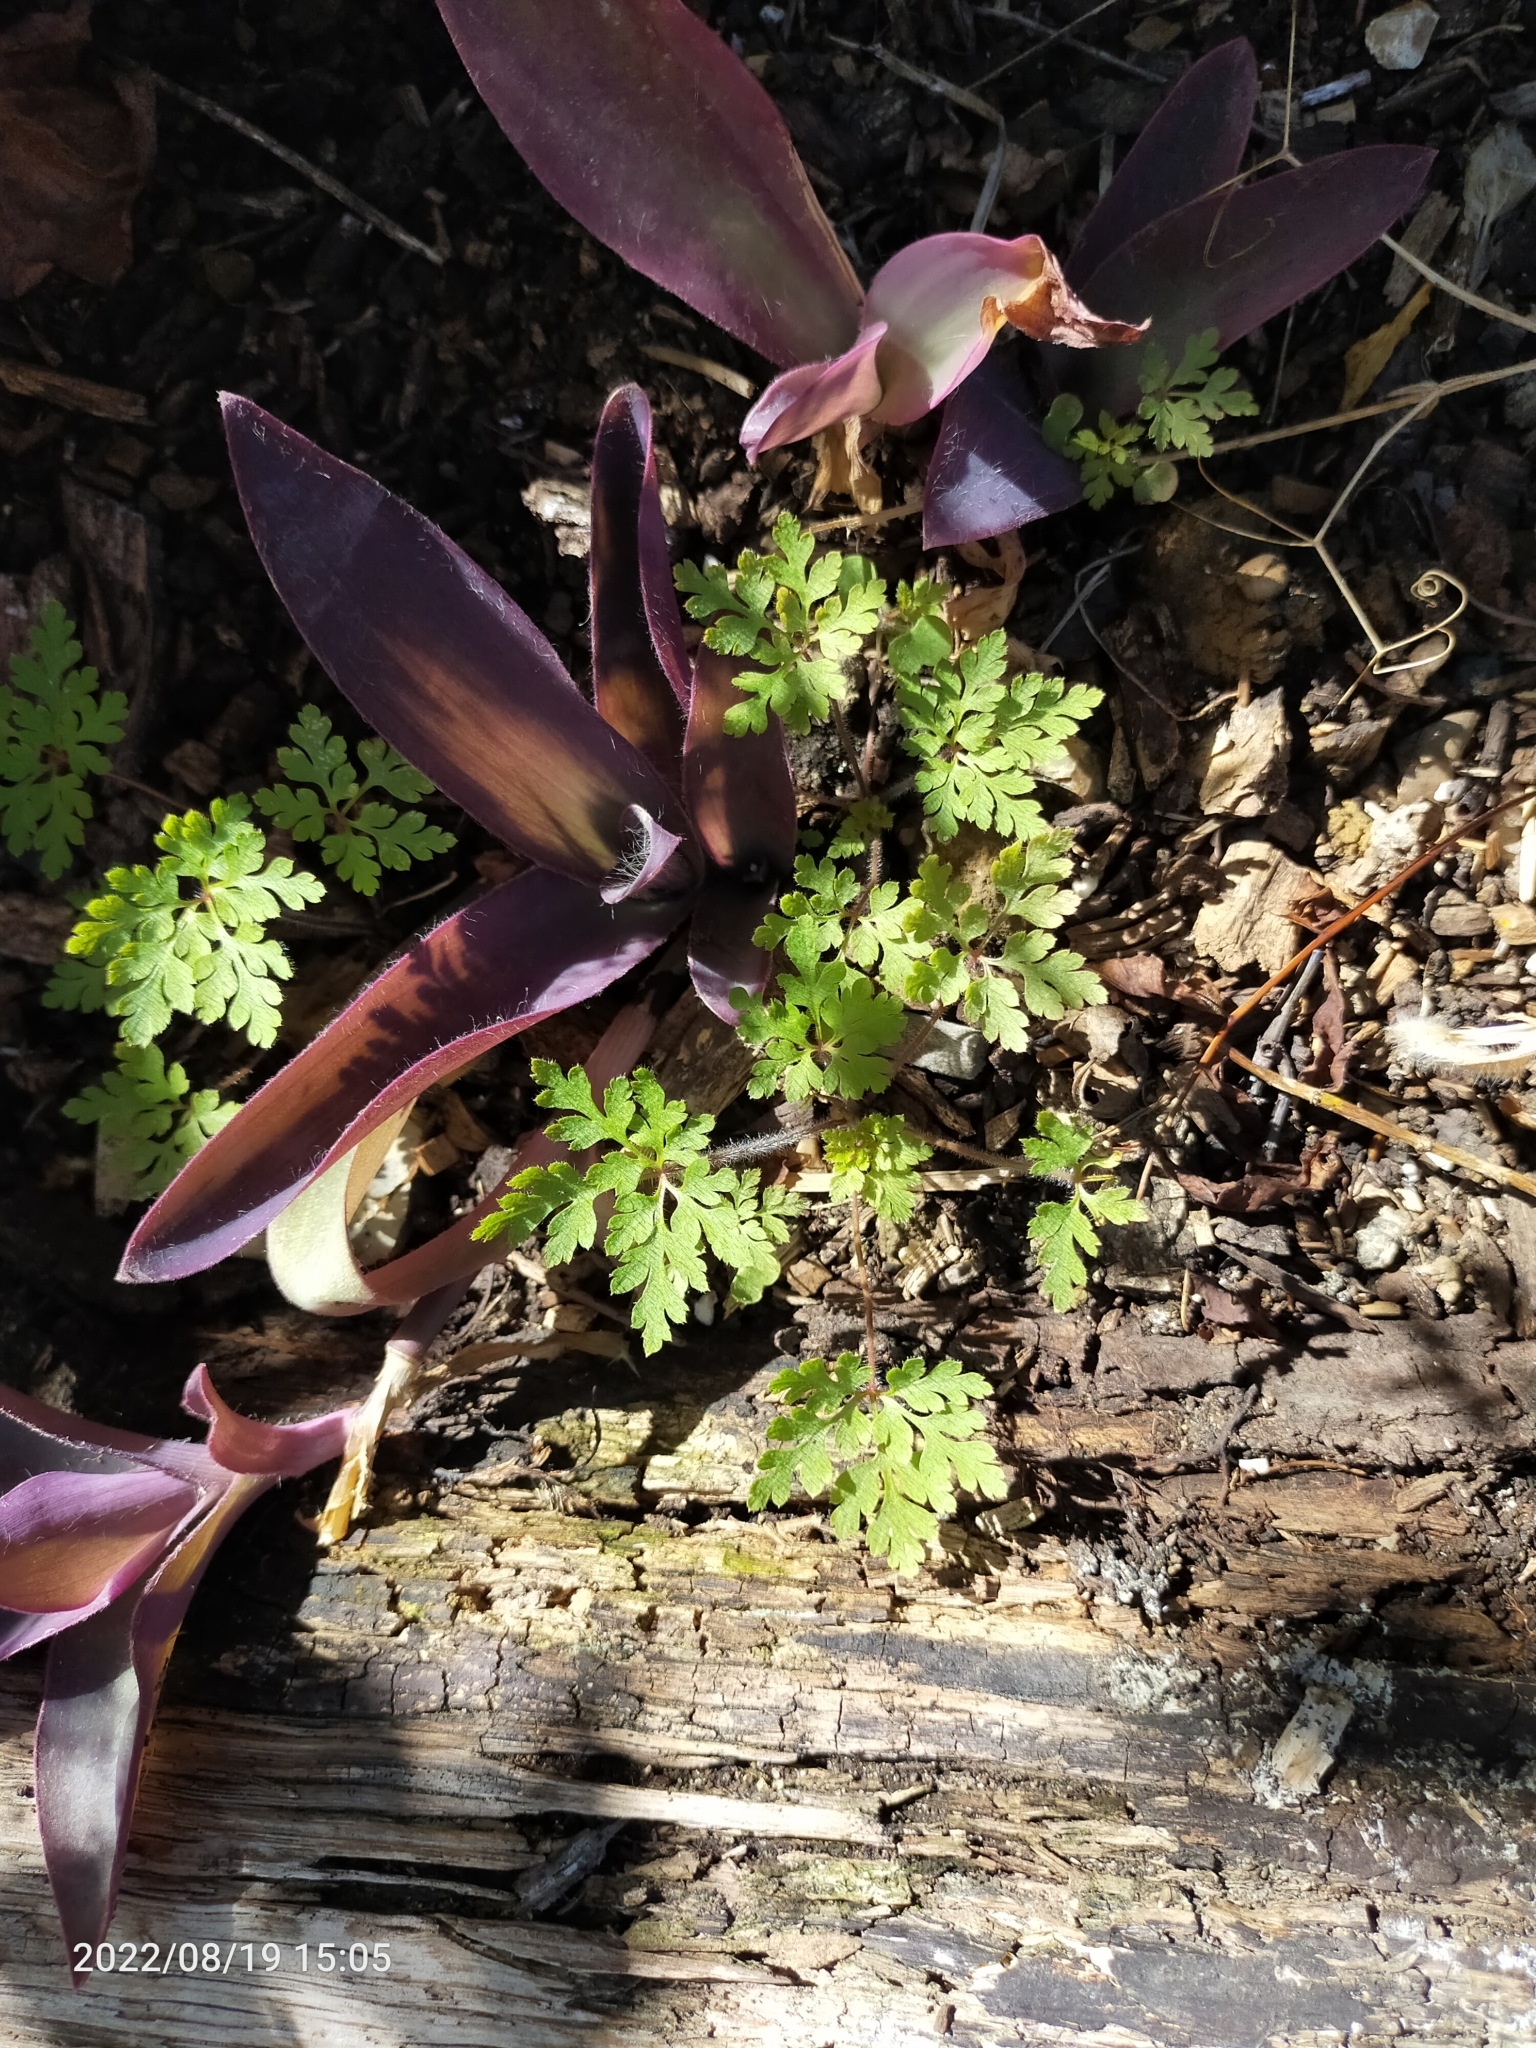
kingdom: Plantae
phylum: Tracheophyta
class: Magnoliopsida
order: Geraniales
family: Geraniaceae
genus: Geranium
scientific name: Geranium robertianum
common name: Herb-robert
